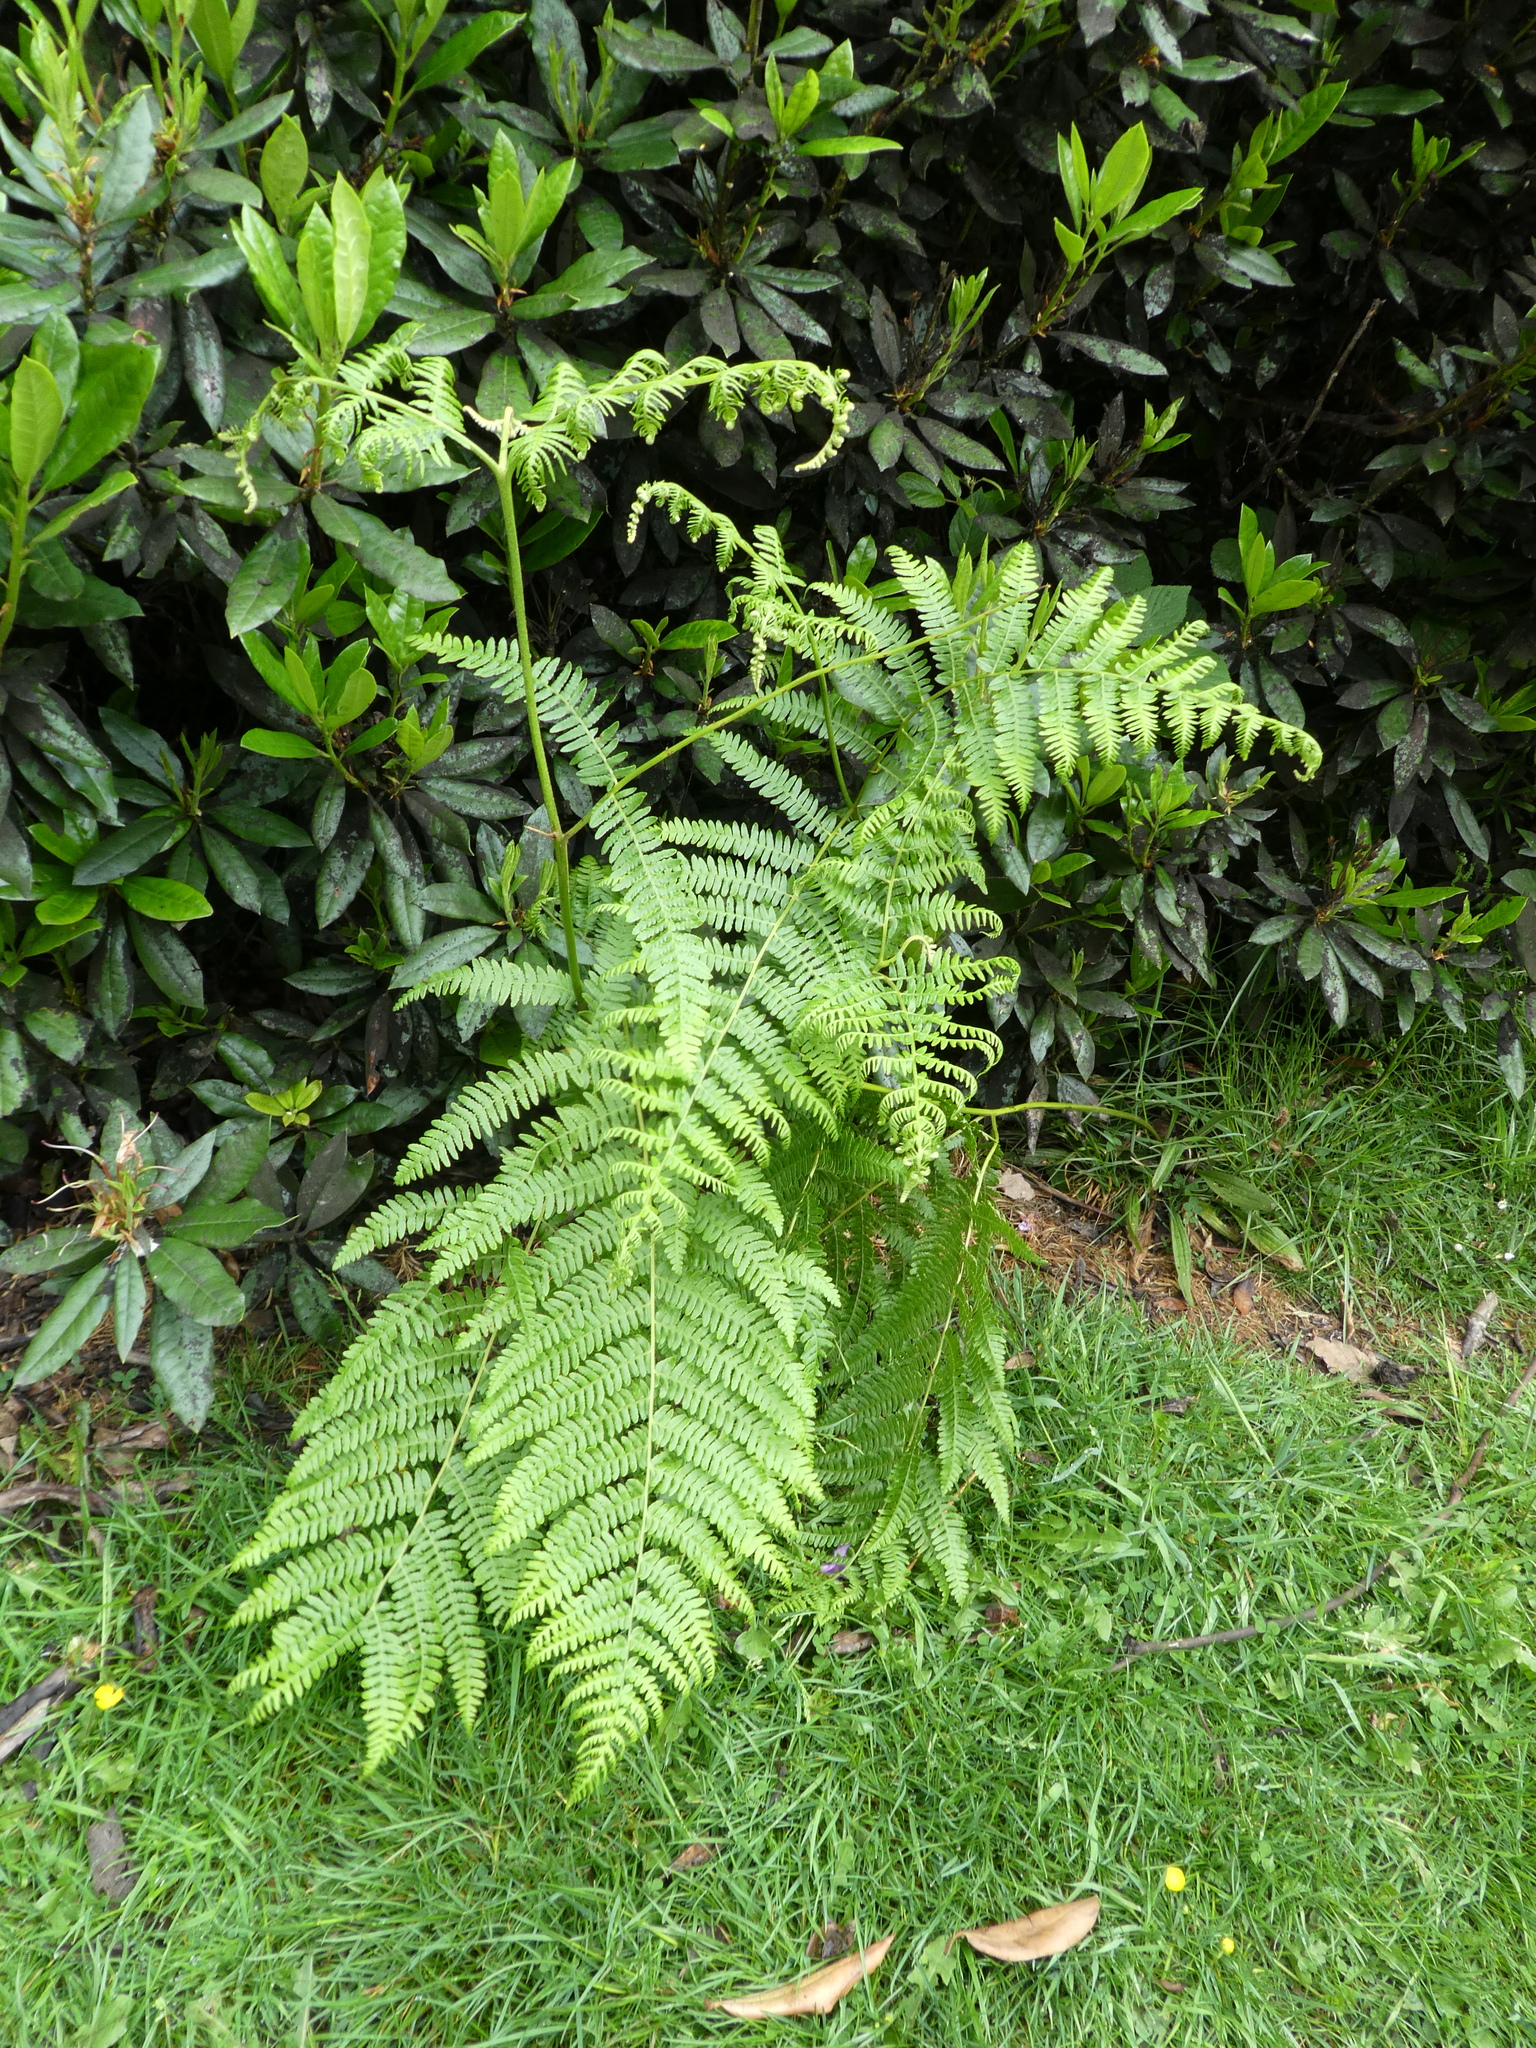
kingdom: Plantae
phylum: Tracheophyta
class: Polypodiopsida
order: Polypodiales
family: Dennstaedtiaceae
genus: Pteridium
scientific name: Pteridium aquilinum
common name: Bracken
